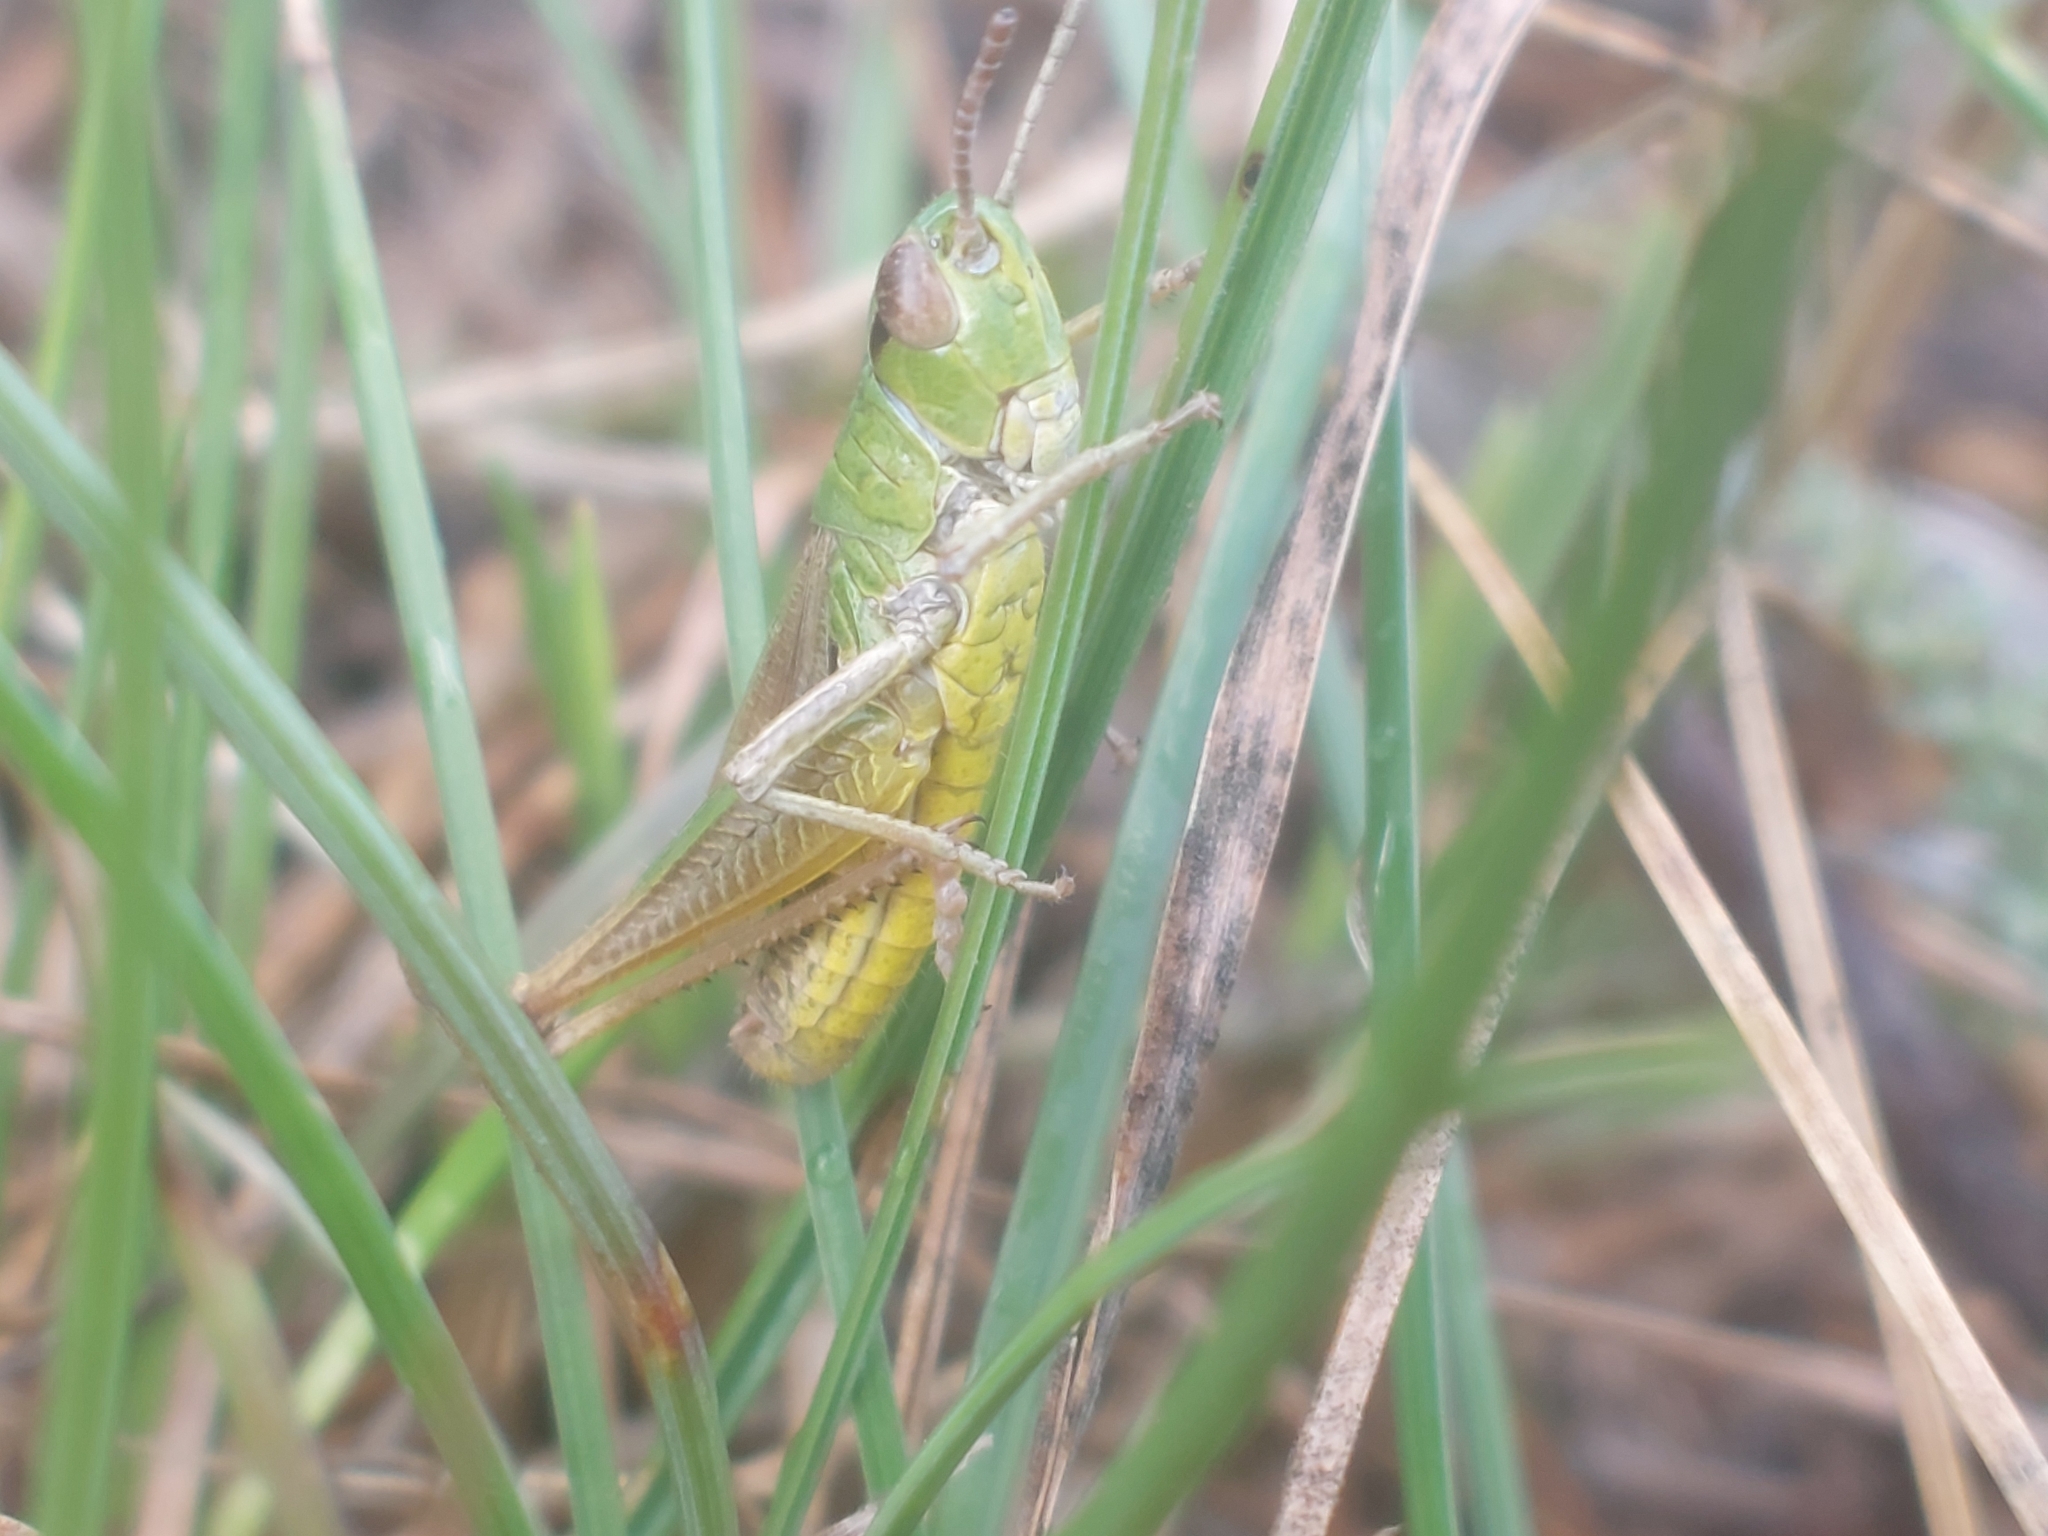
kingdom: Animalia
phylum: Arthropoda
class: Insecta
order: Orthoptera
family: Acrididae
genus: Pseudochorthippus
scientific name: Pseudochorthippus parallelus
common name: Meadow grasshopper
